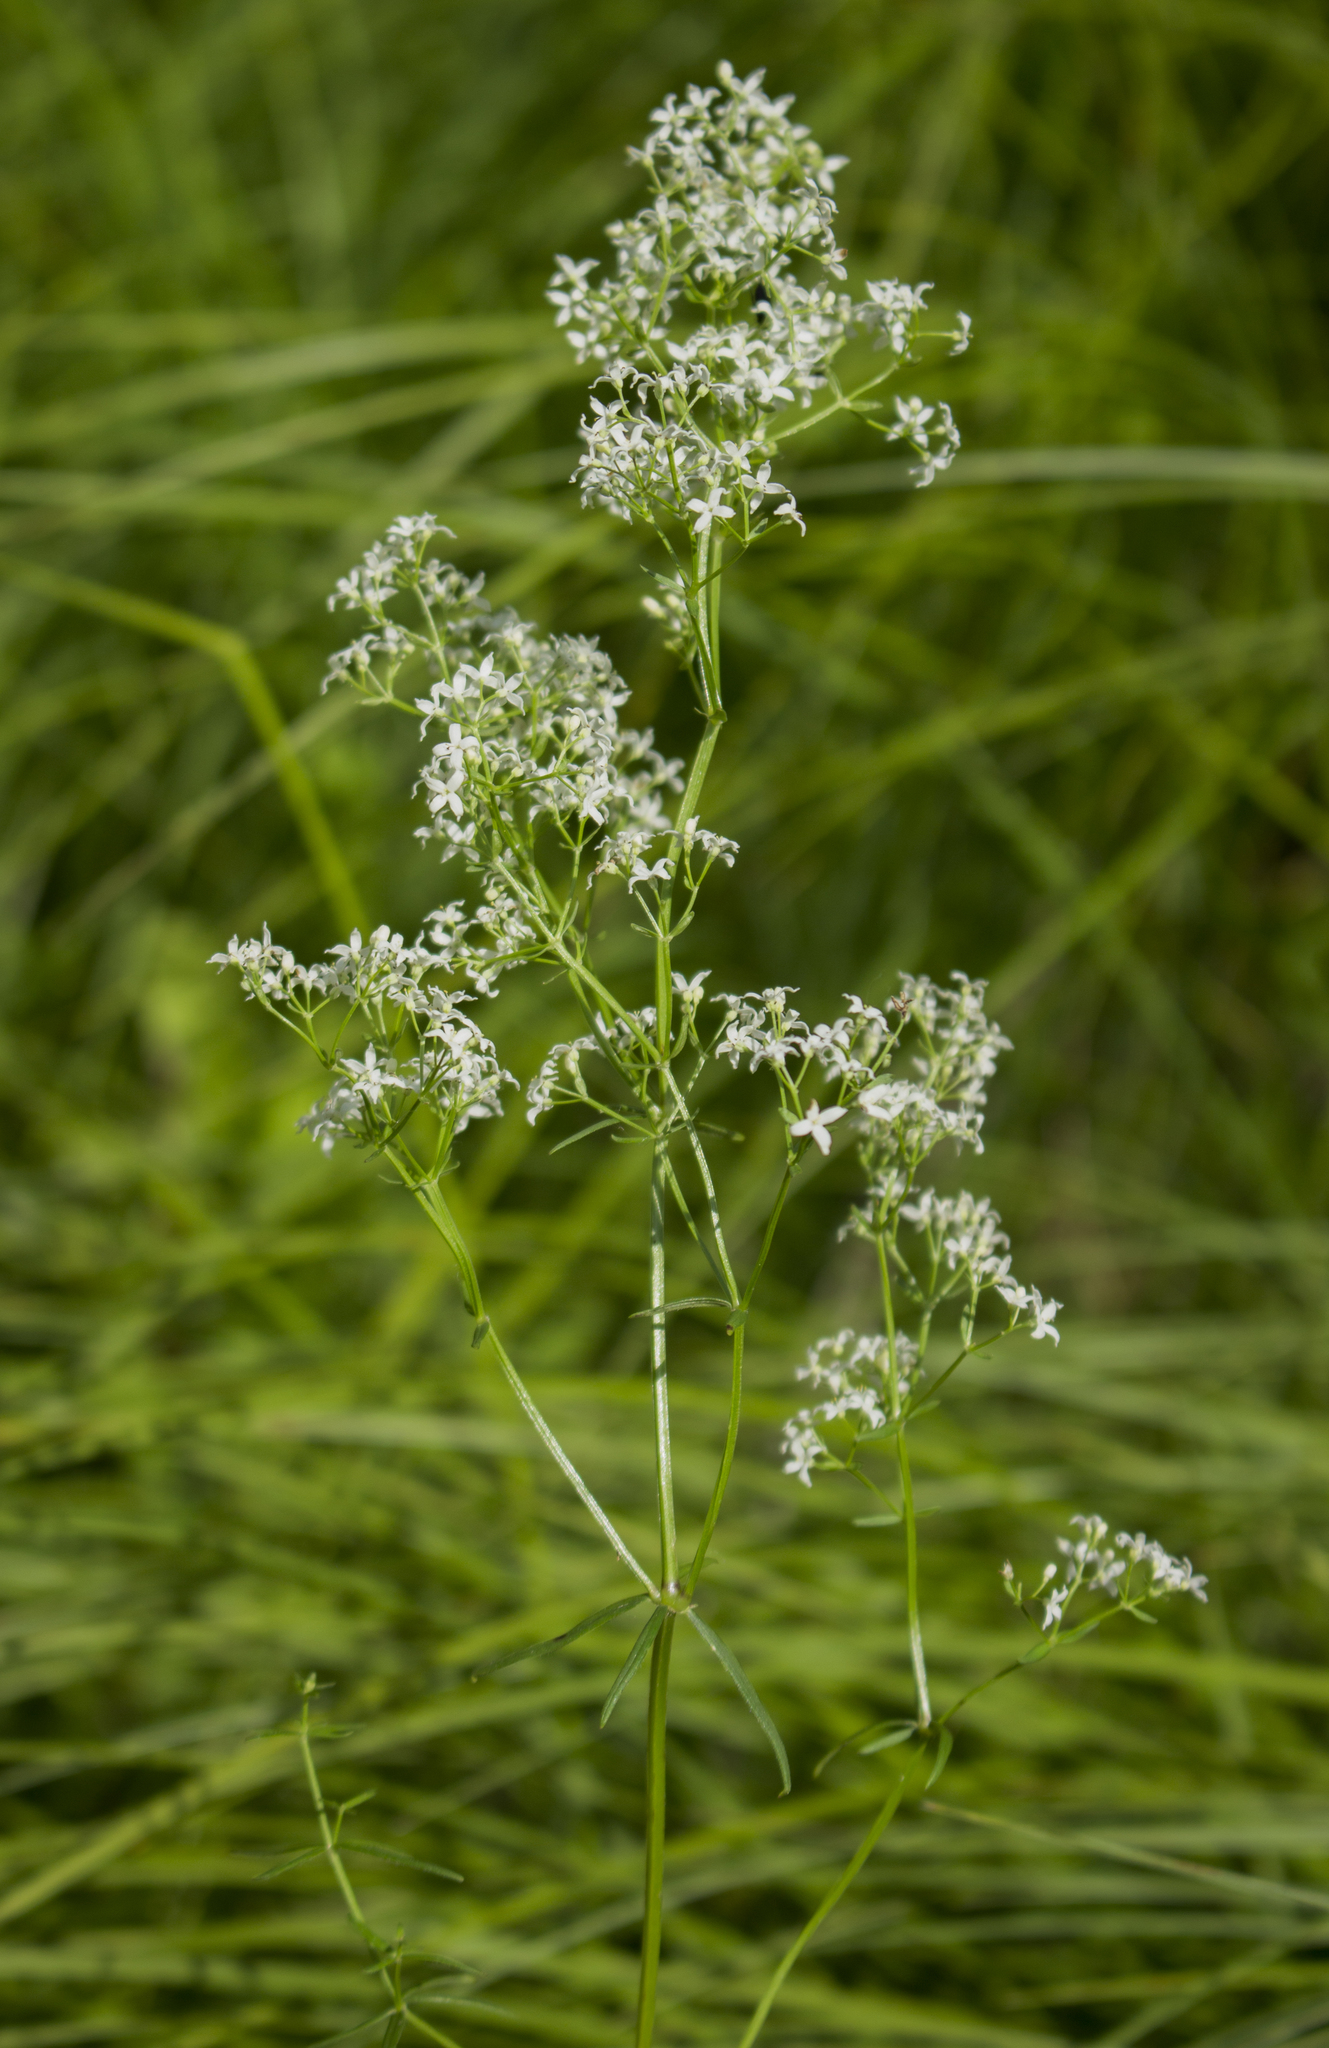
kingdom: Plantae
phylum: Tracheophyta
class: Magnoliopsida
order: Gentianales
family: Rubiaceae
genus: Galium
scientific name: Galium boreale
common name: Northern bedstraw
